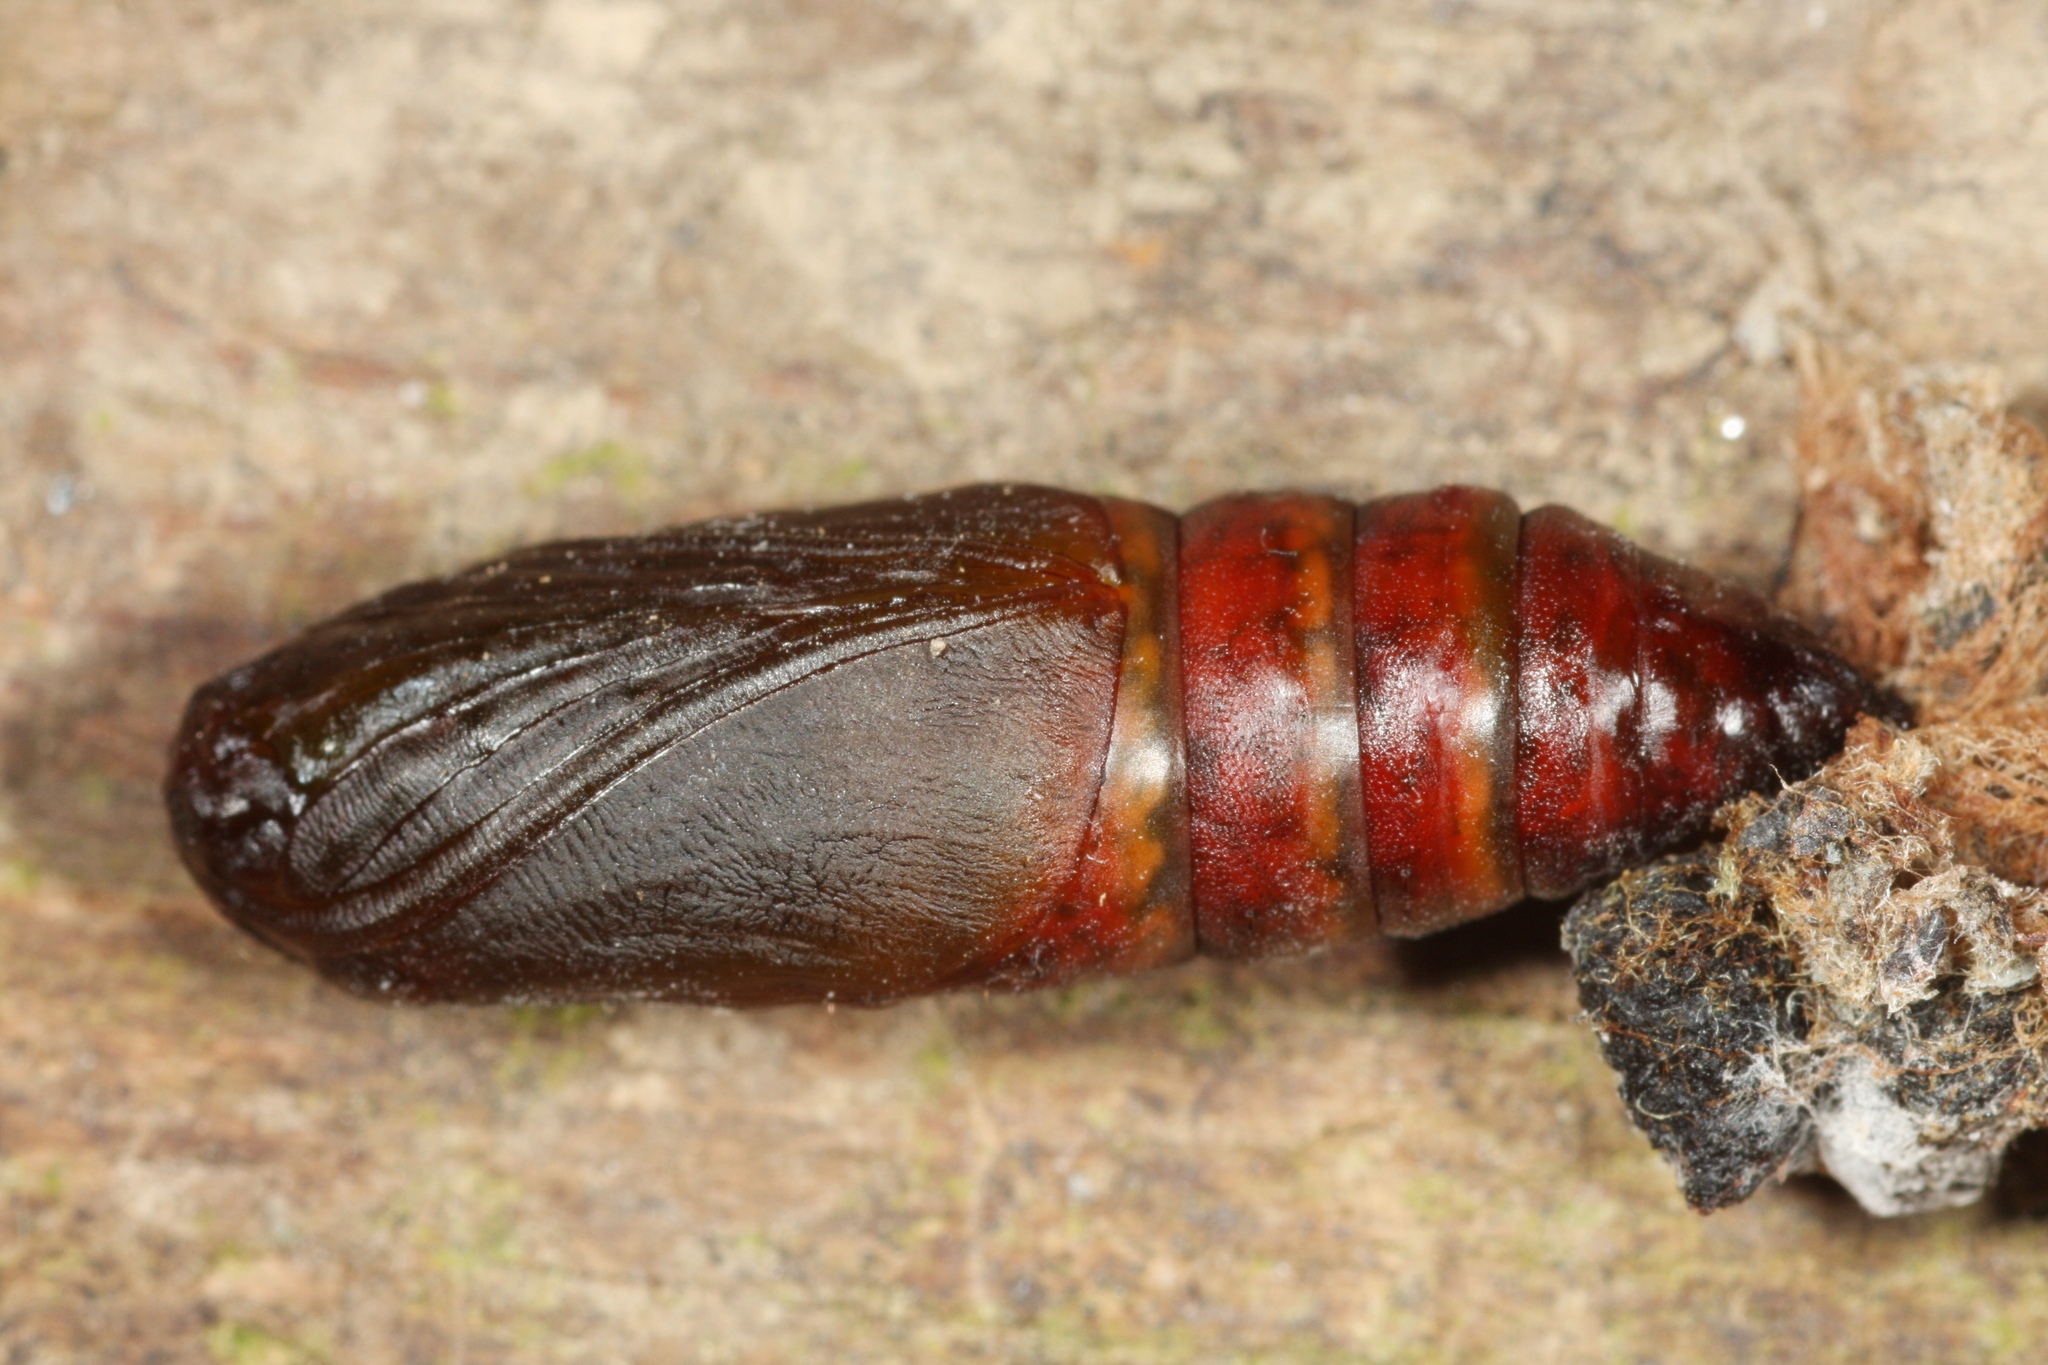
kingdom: Animalia
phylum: Arthropoda
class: Insecta
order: Lepidoptera
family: Geometridae
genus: Odontopera
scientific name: Odontopera bidentata
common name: Scalloped hazel
